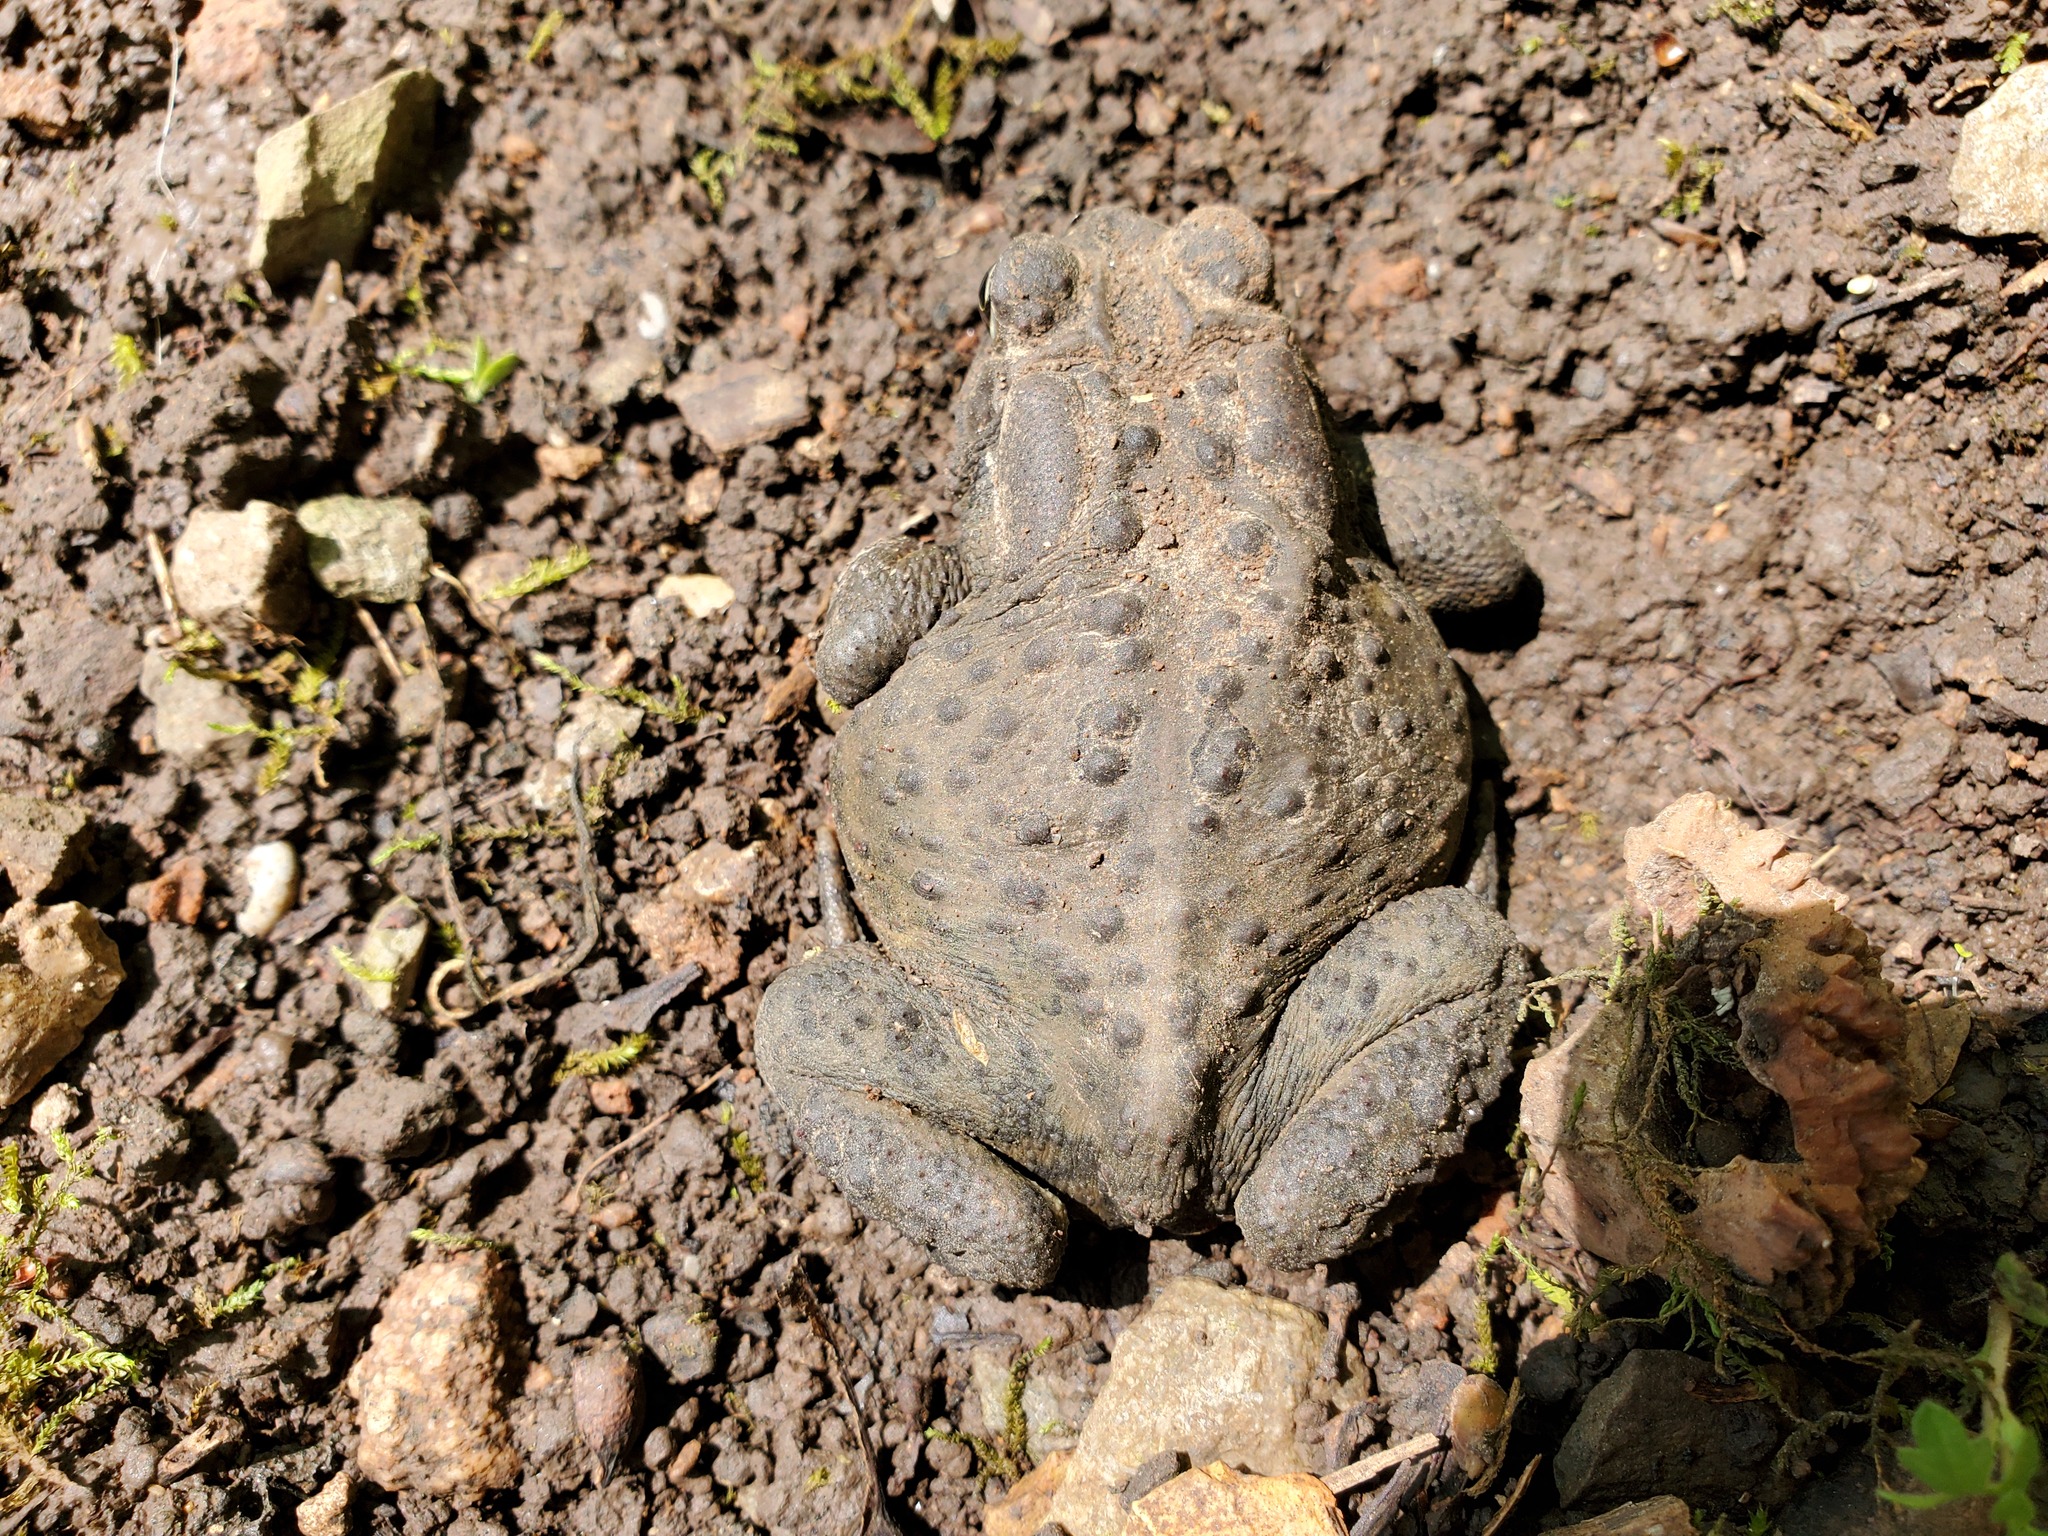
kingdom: Animalia
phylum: Chordata
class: Amphibia
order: Anura
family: Bufonidae
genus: Anaxyrus
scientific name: Anaxyrus americanus
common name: American toad
